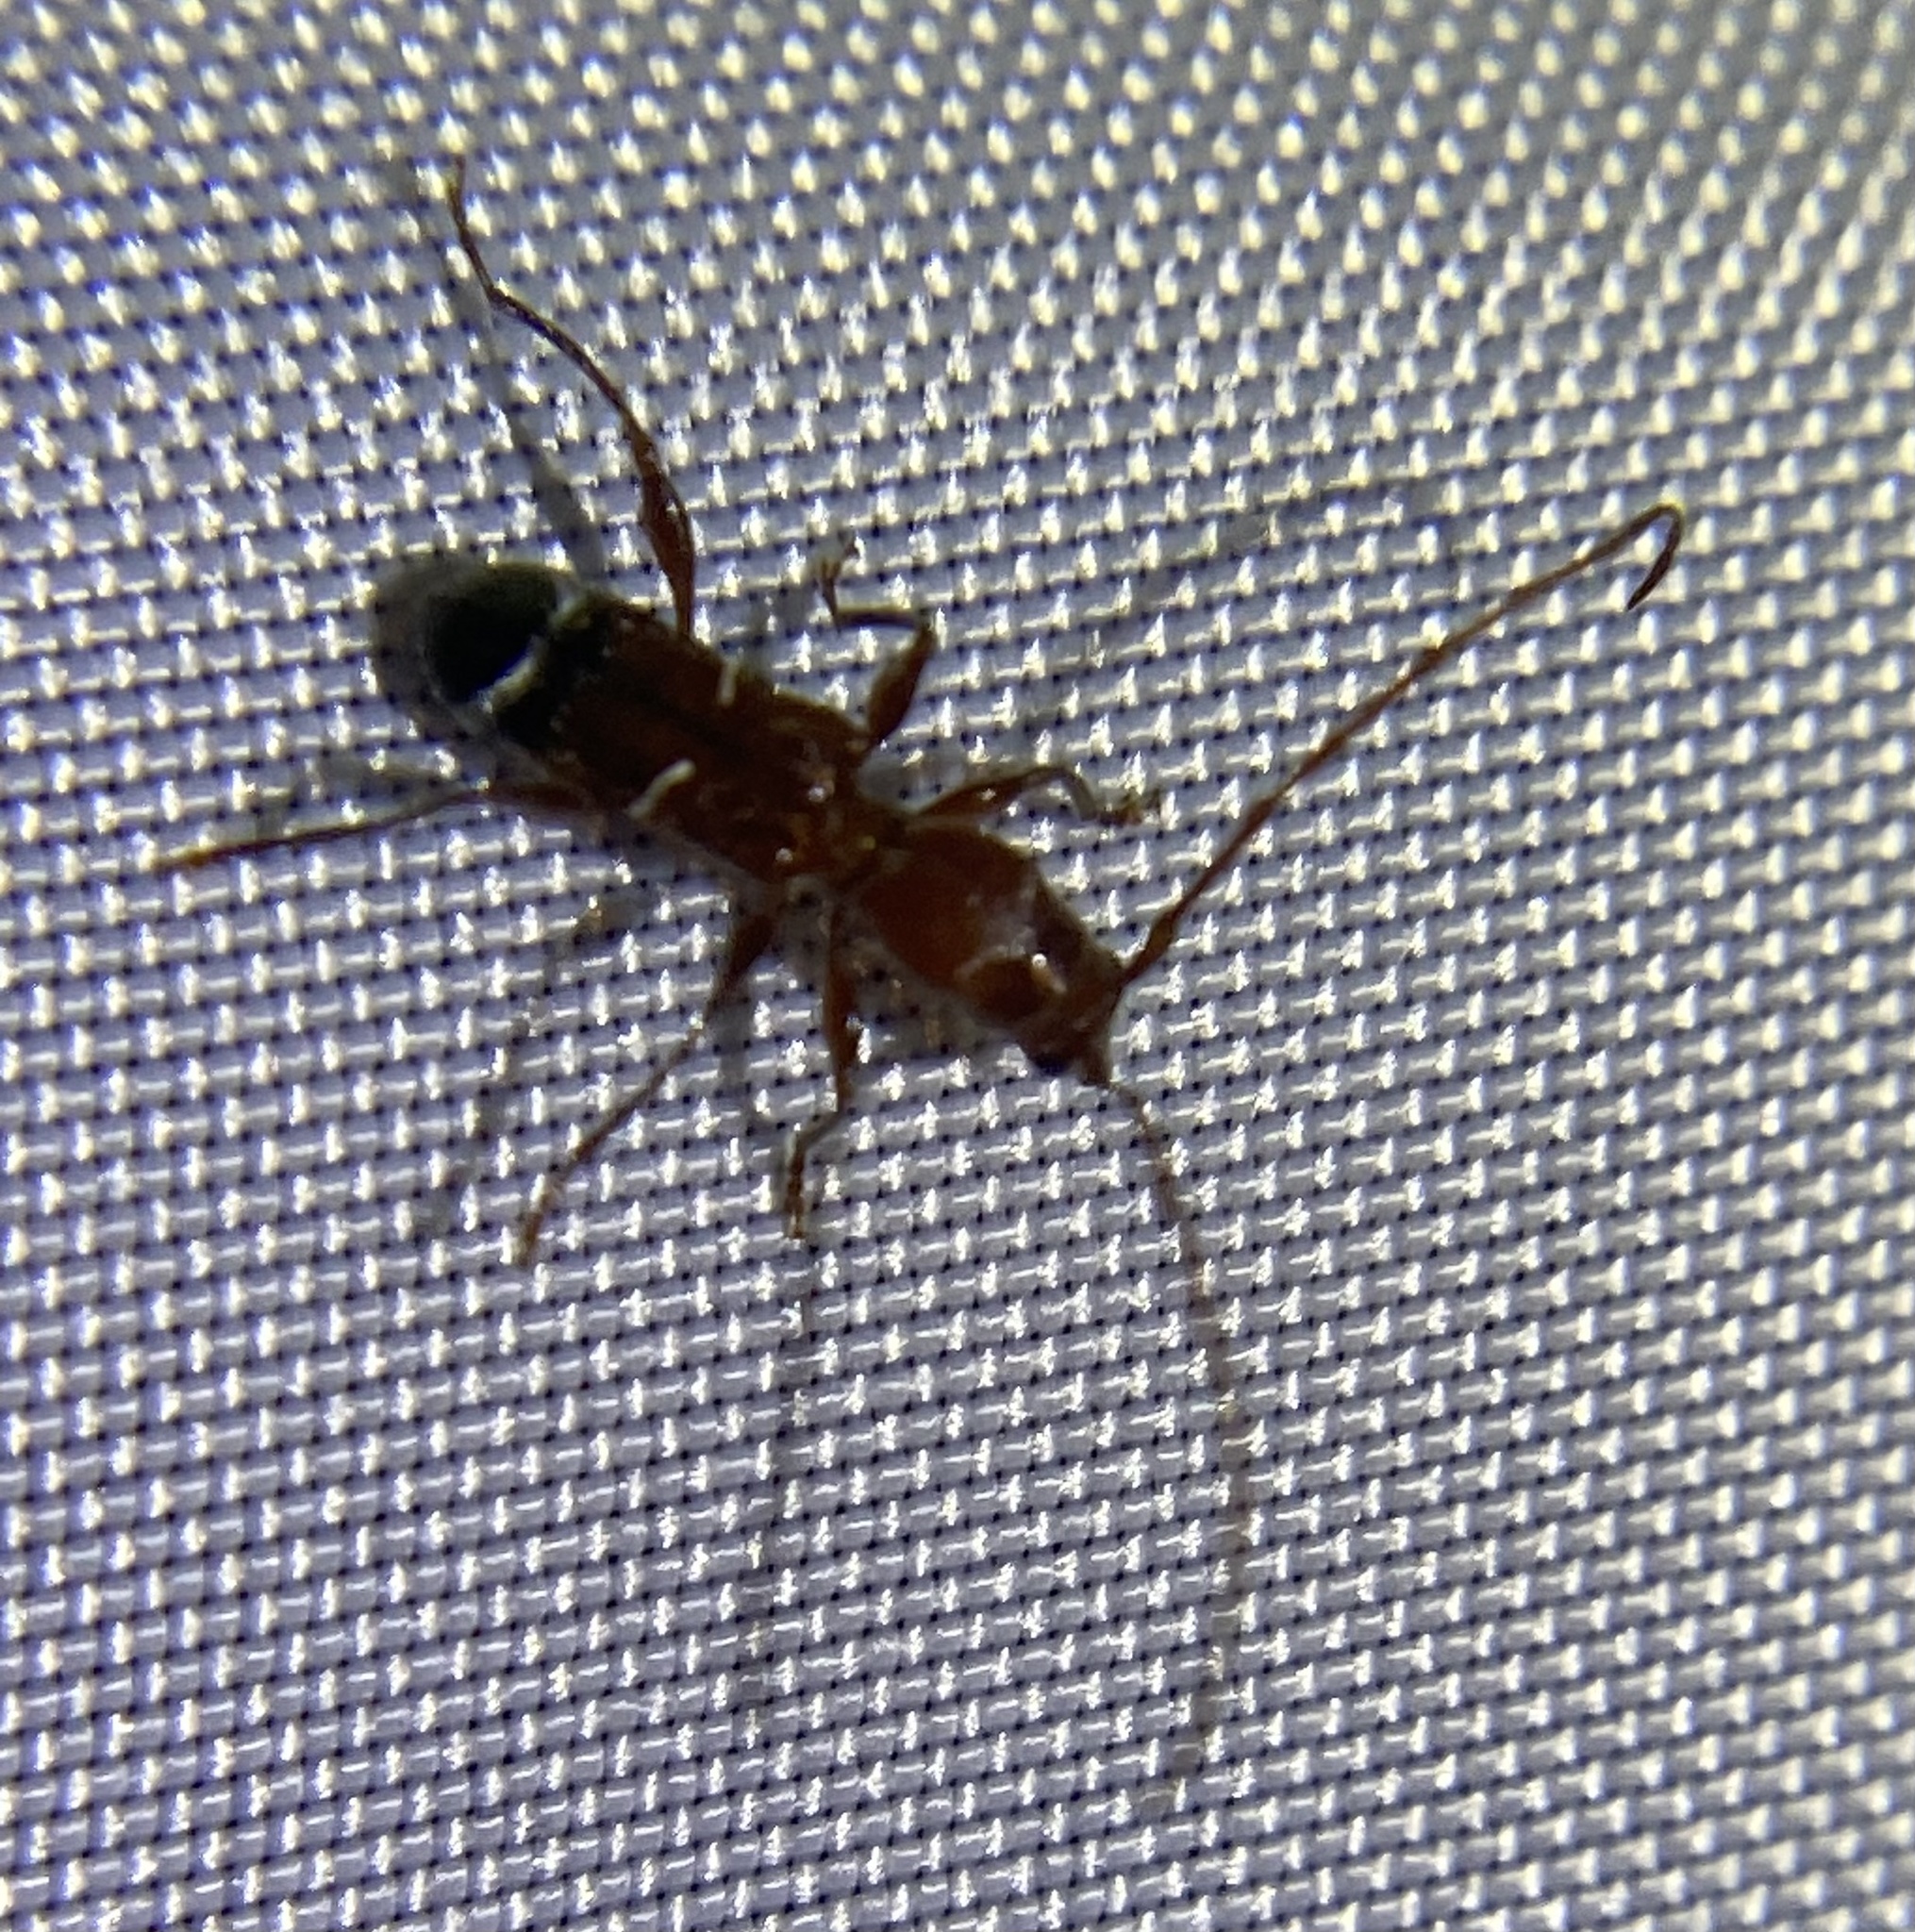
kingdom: Animalia
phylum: Arthropoda
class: Insecta
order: Coleoptera
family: Cerambycidae
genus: Euderces
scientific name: Euderces pini
